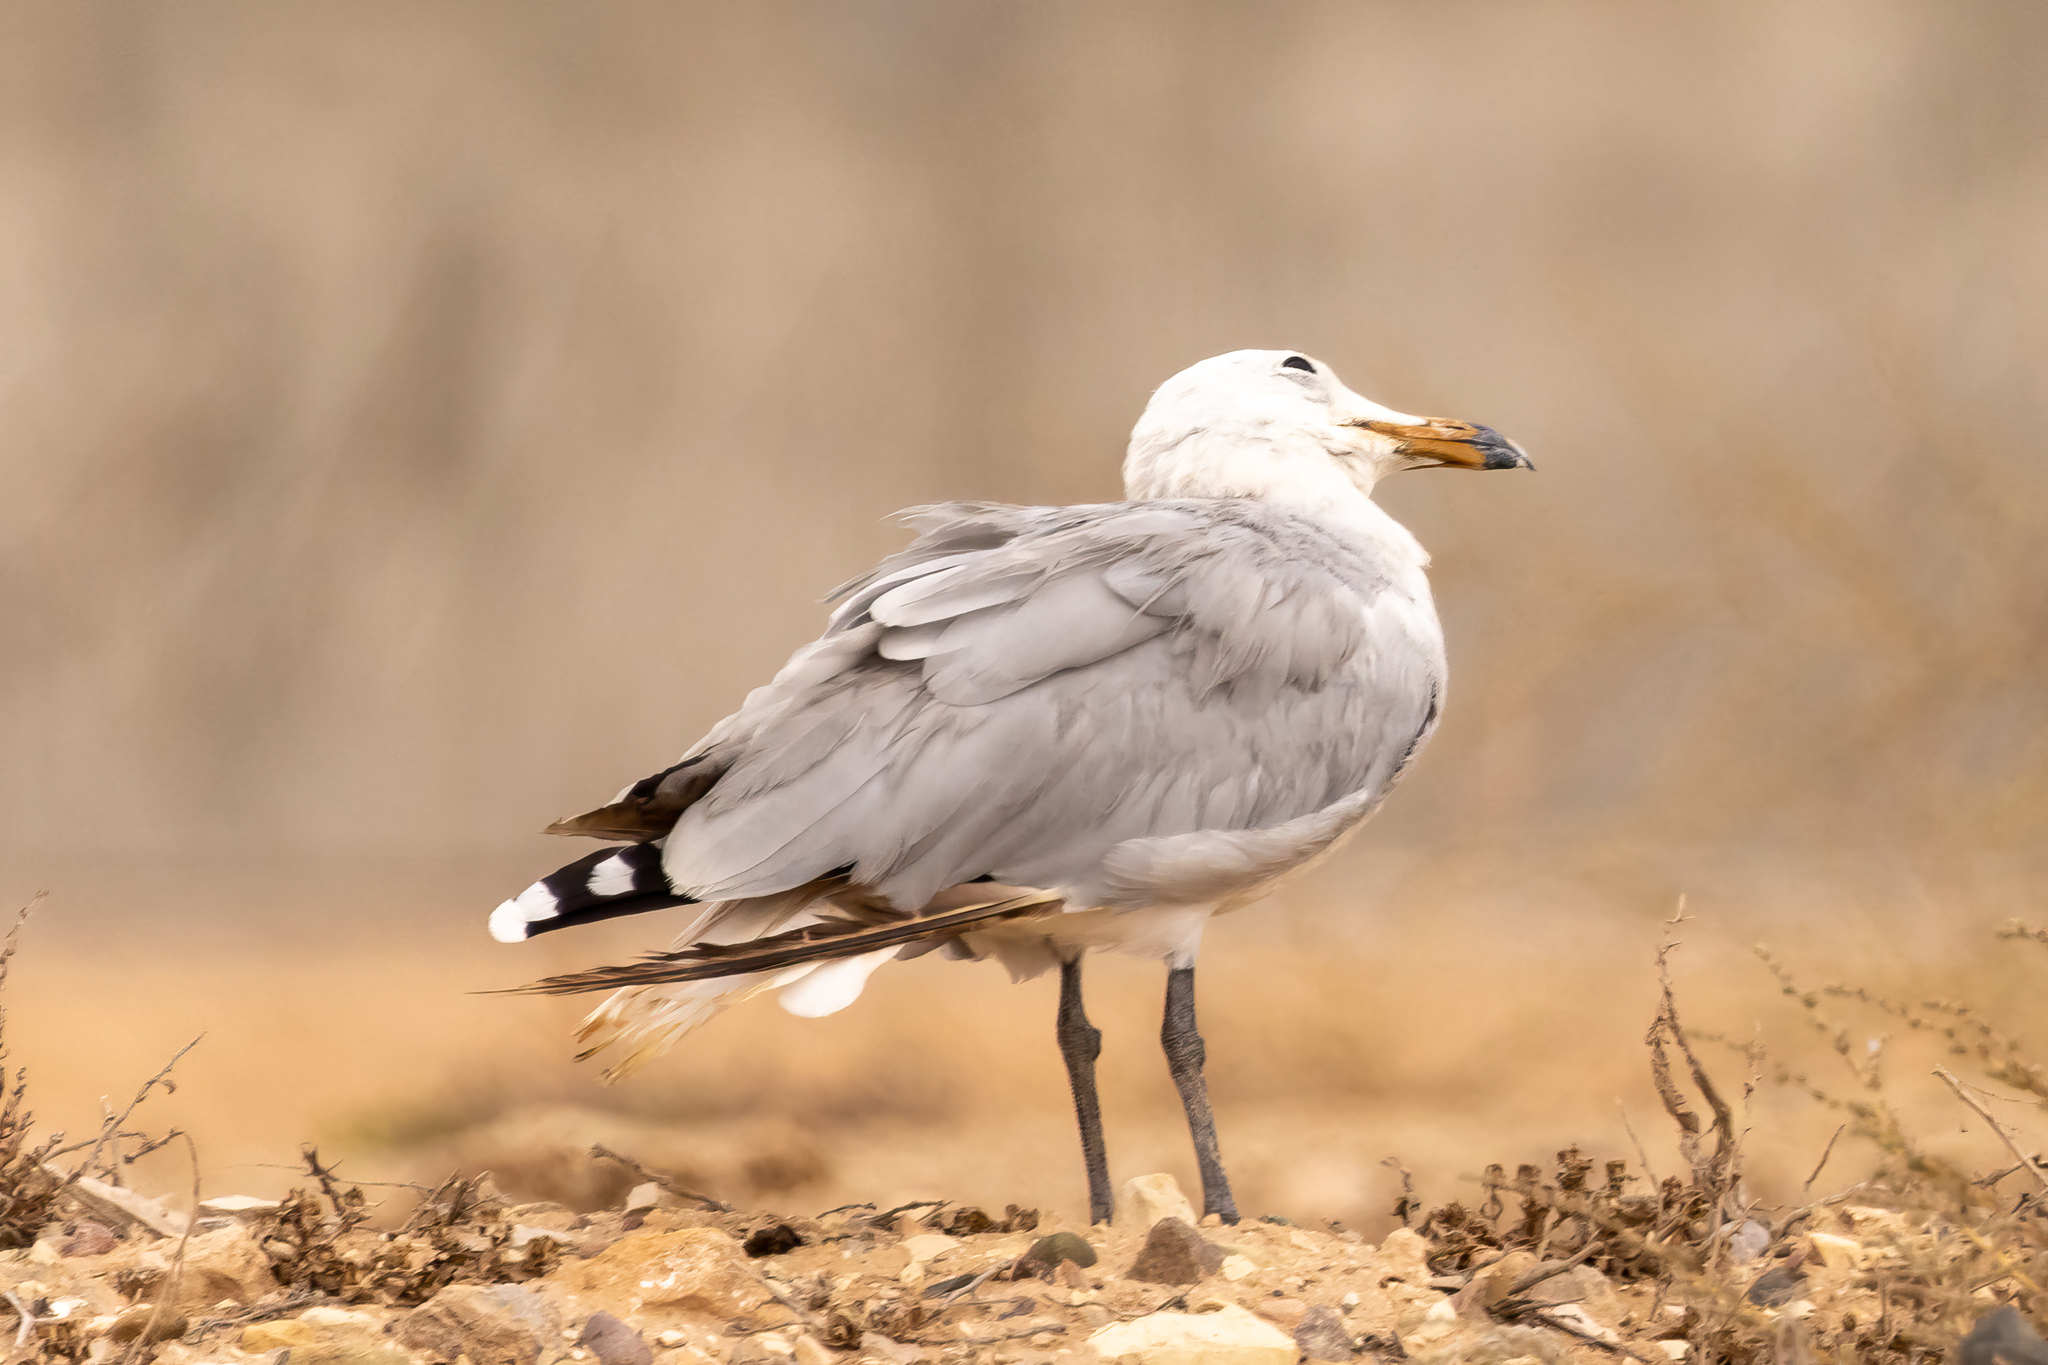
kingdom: Animalia
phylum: Chordata
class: Aves
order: Charadriiformes
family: Laridae
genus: Ichthyaetus
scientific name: Ichthyaetus audouinii
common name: Audouin's gull
